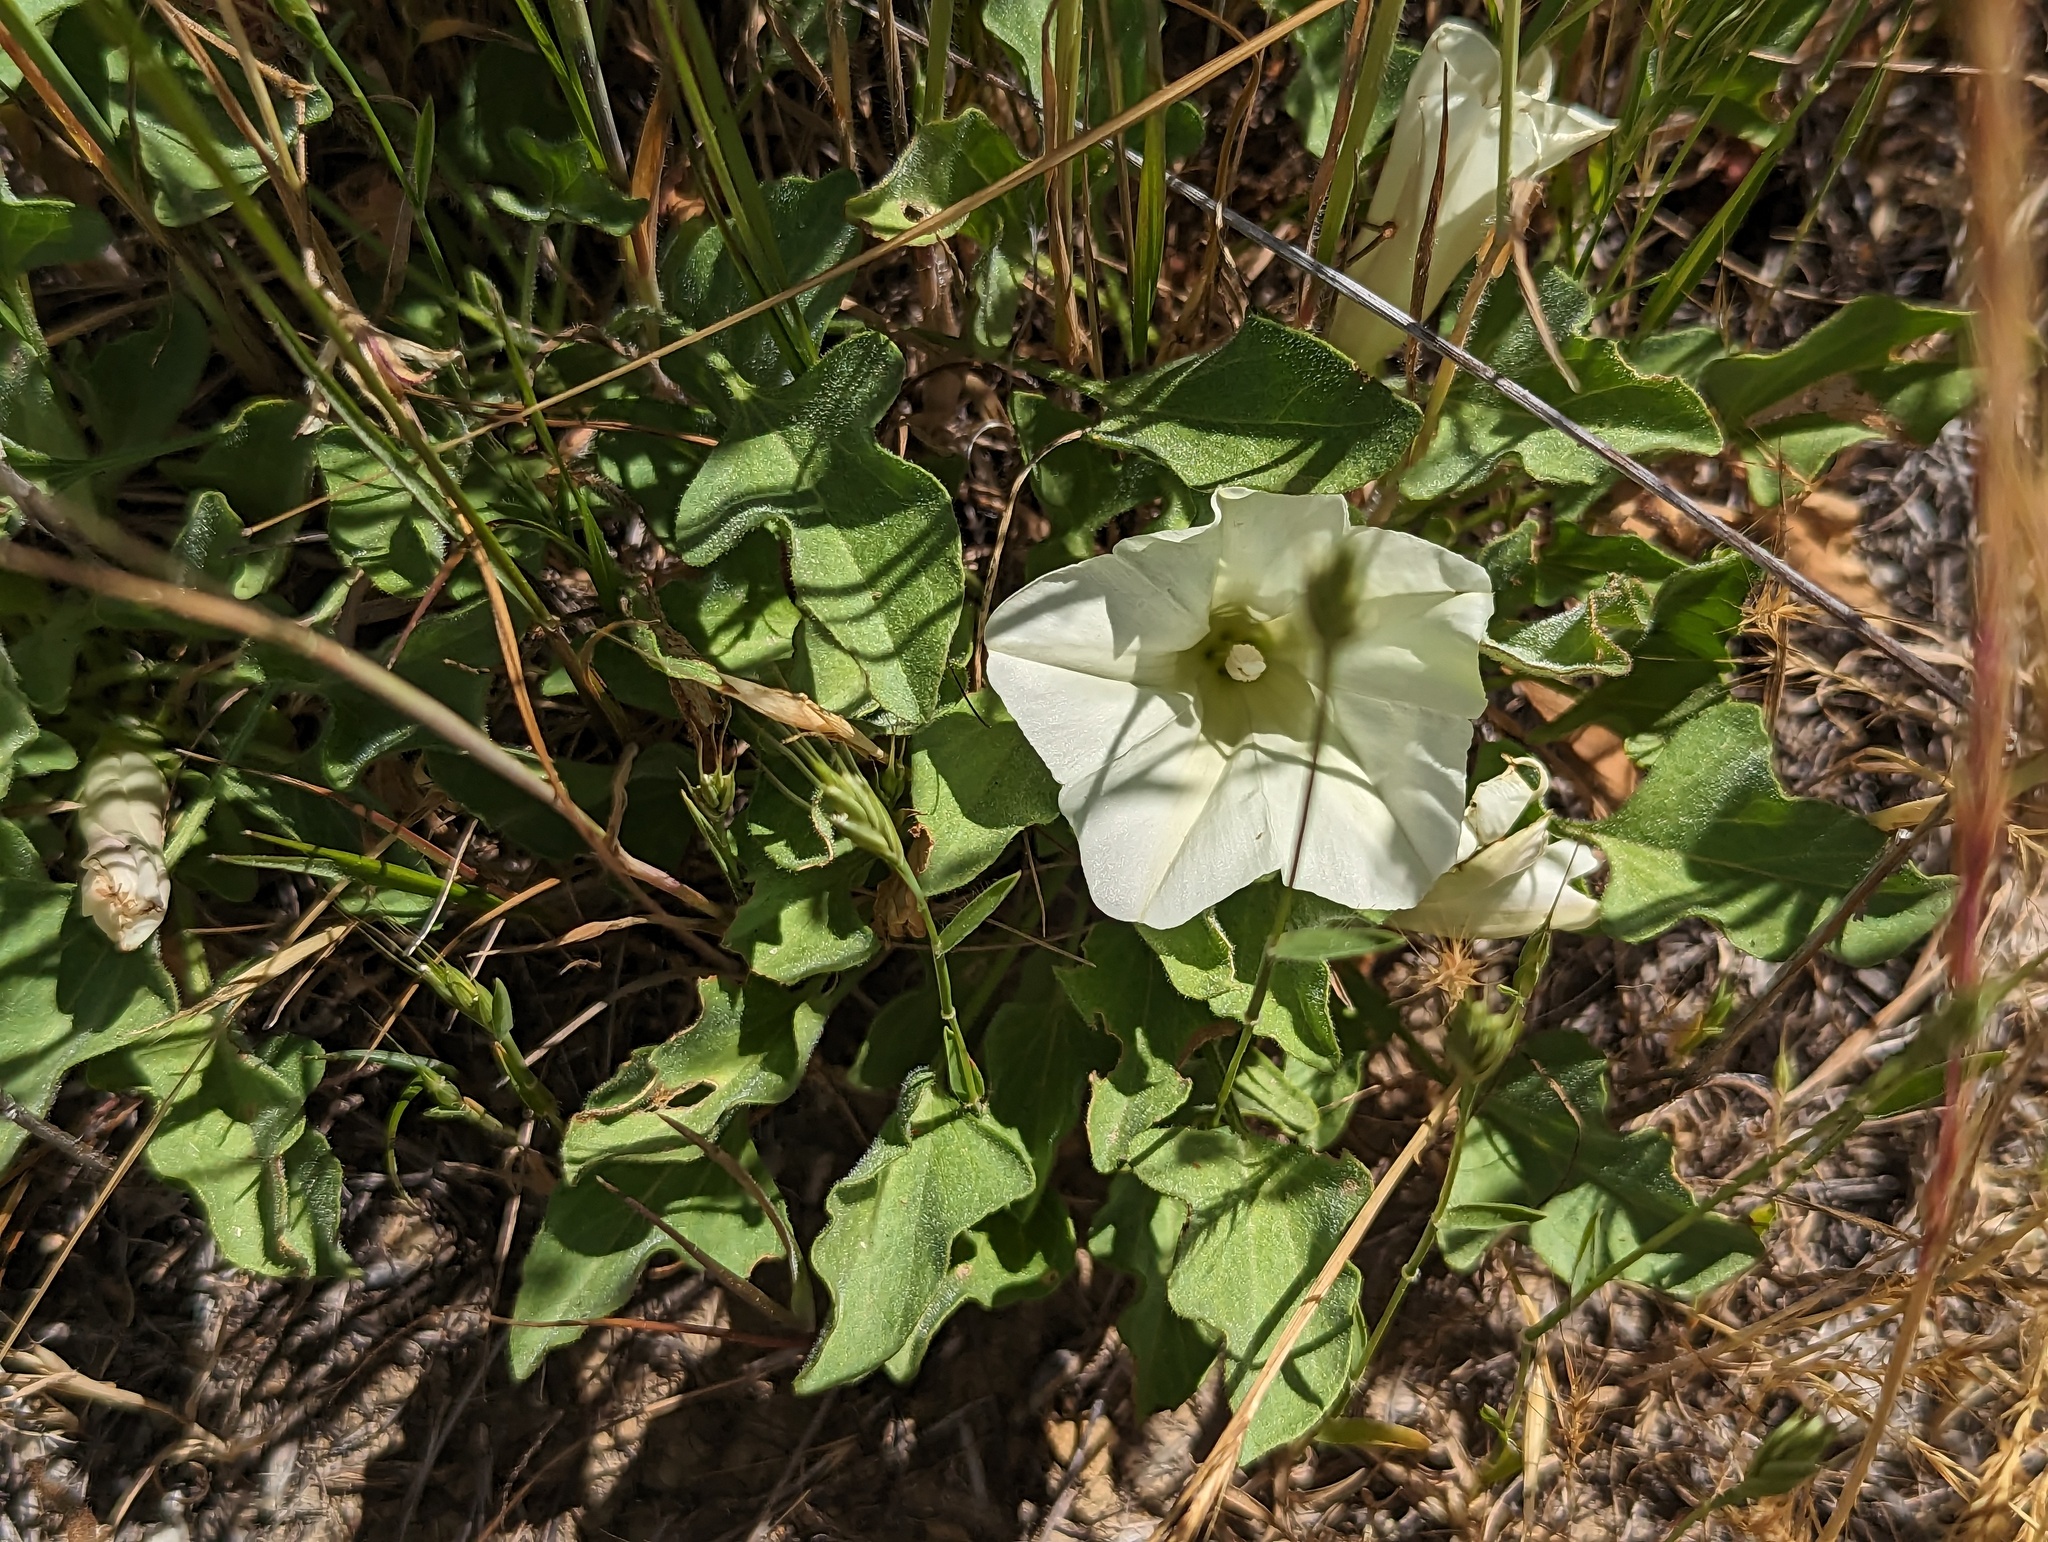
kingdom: Plantae
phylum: Tracheophyta
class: Magnoliopsida
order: Solanales
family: Convolvulaceae
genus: Calystegia
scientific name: Calystegia subacaulis
